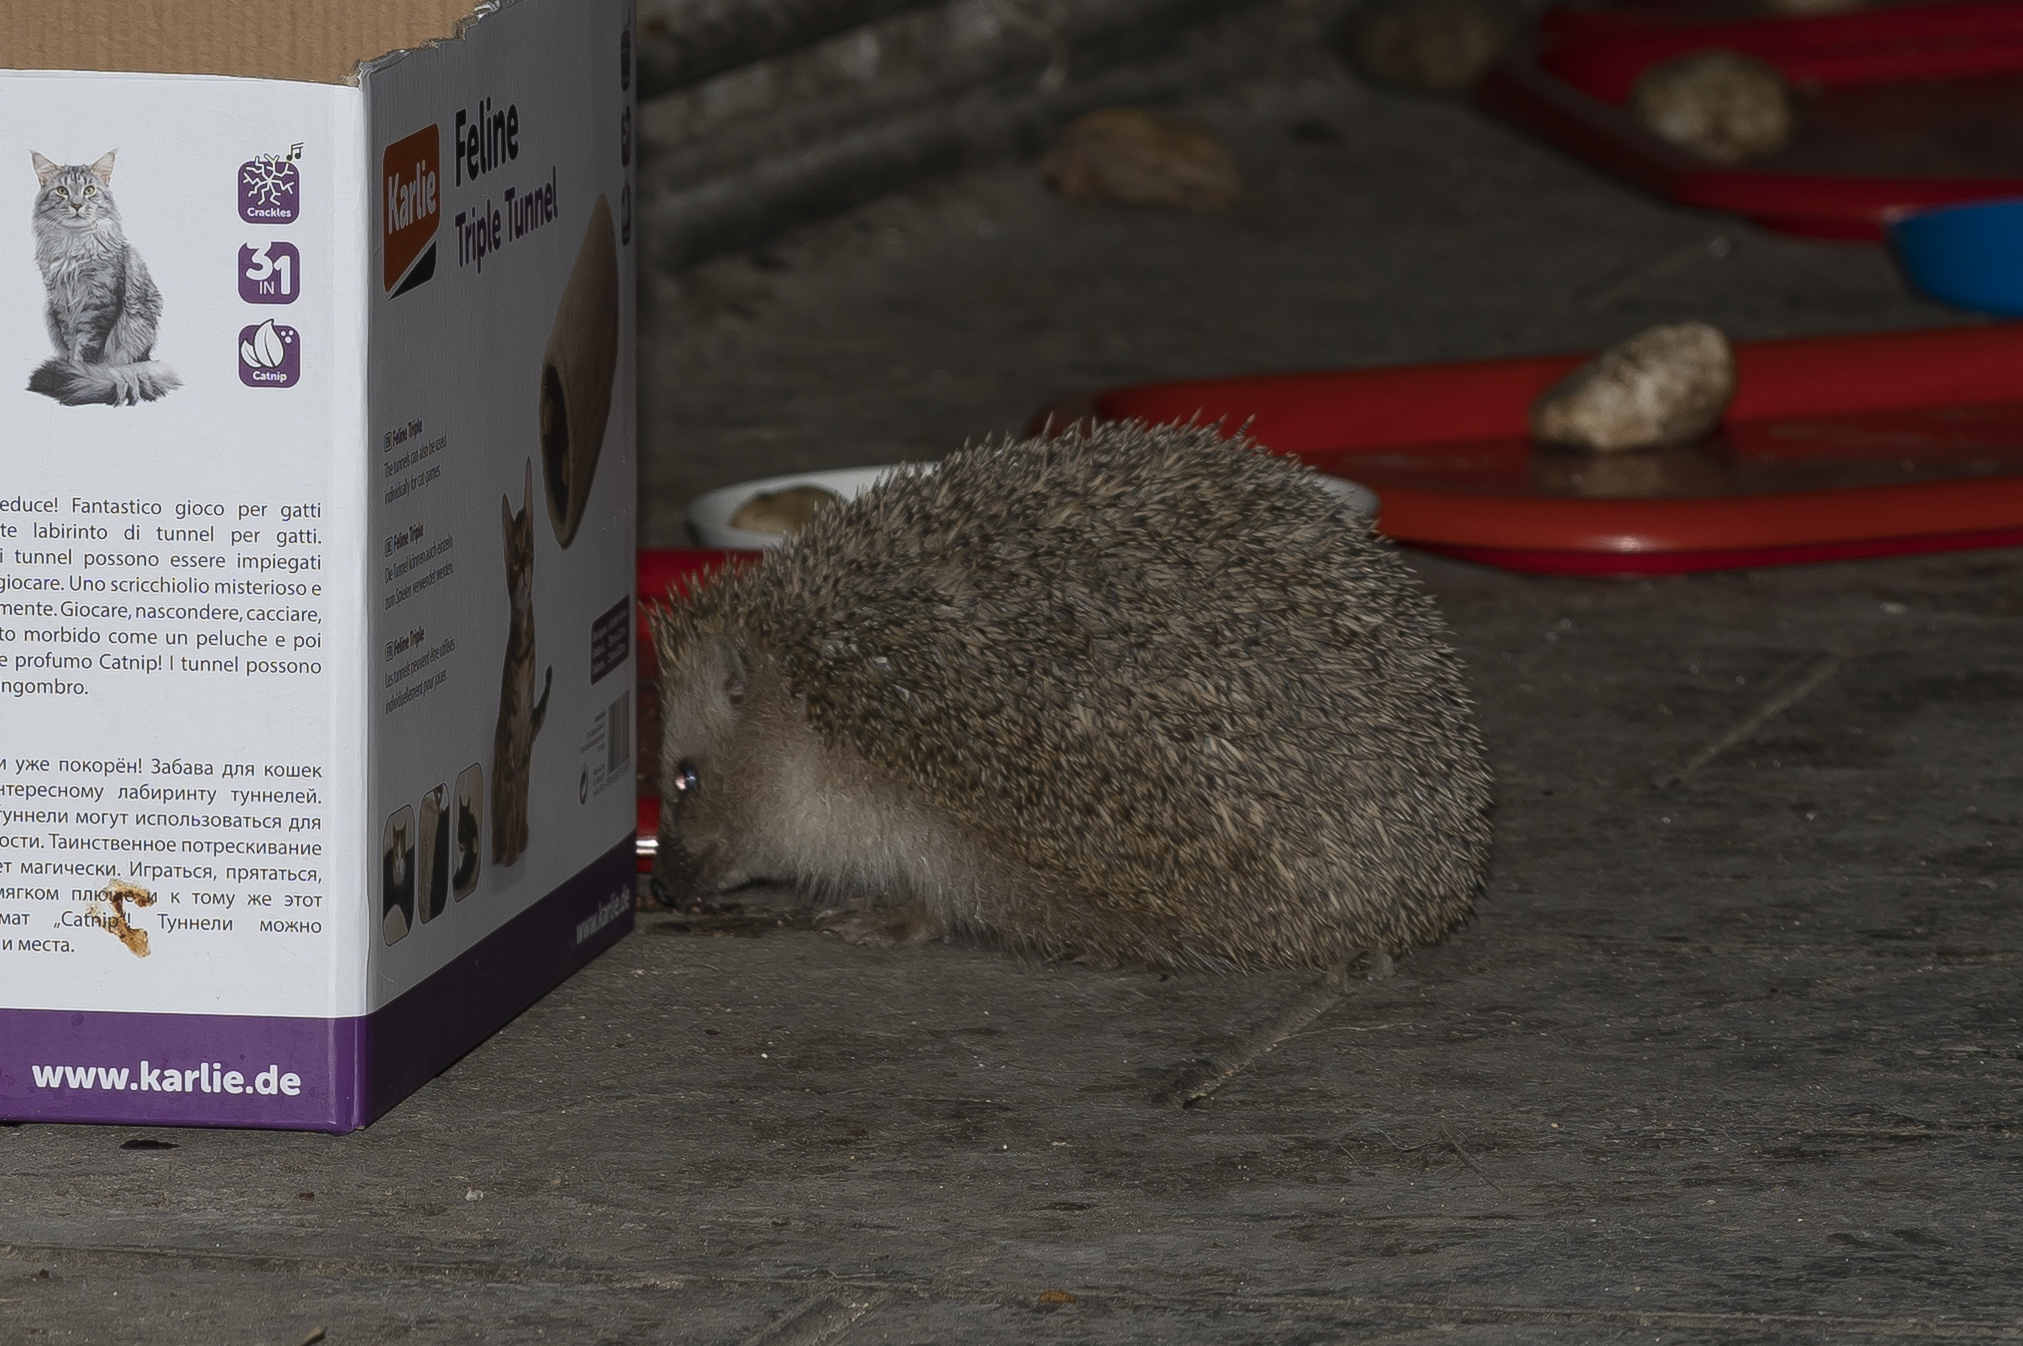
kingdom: Animalia
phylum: Chordata
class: Mammalia
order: Erinaceomorpha
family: Erinaceidae
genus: Erinaceus
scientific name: Erinaceus concolor
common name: Southern white-breasted hedgehog
